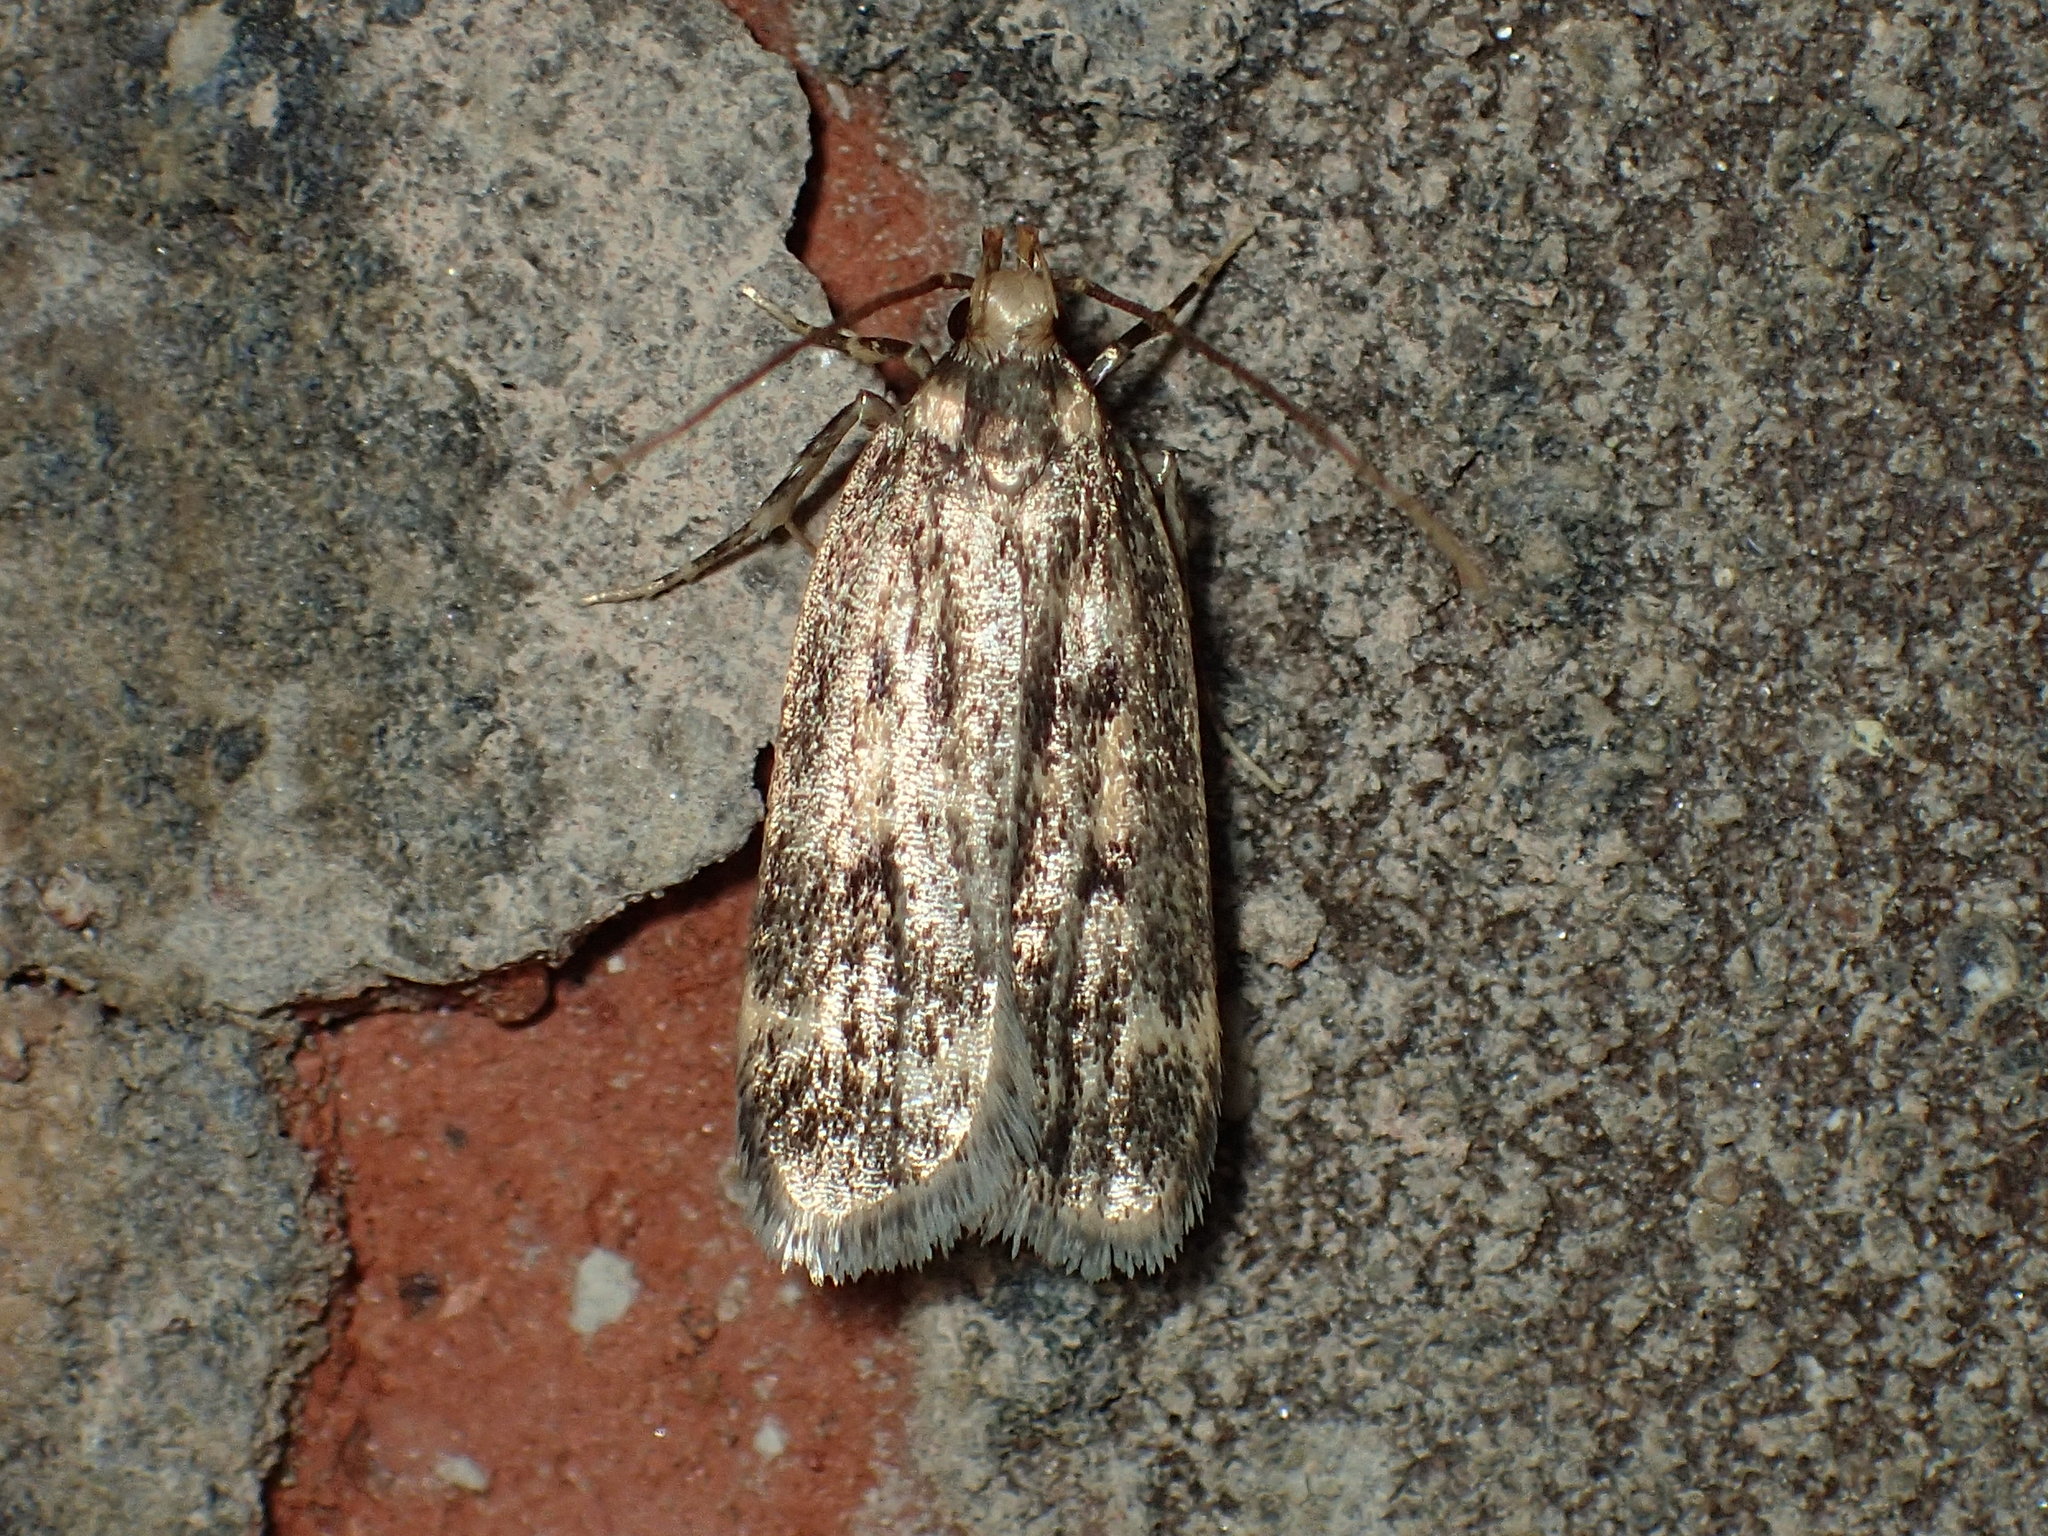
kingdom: Animalia
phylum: Arthropoda
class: Insecta
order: Lepidoptera
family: Lecithoceridae
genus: Martyringa
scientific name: Martyringa latipennis
